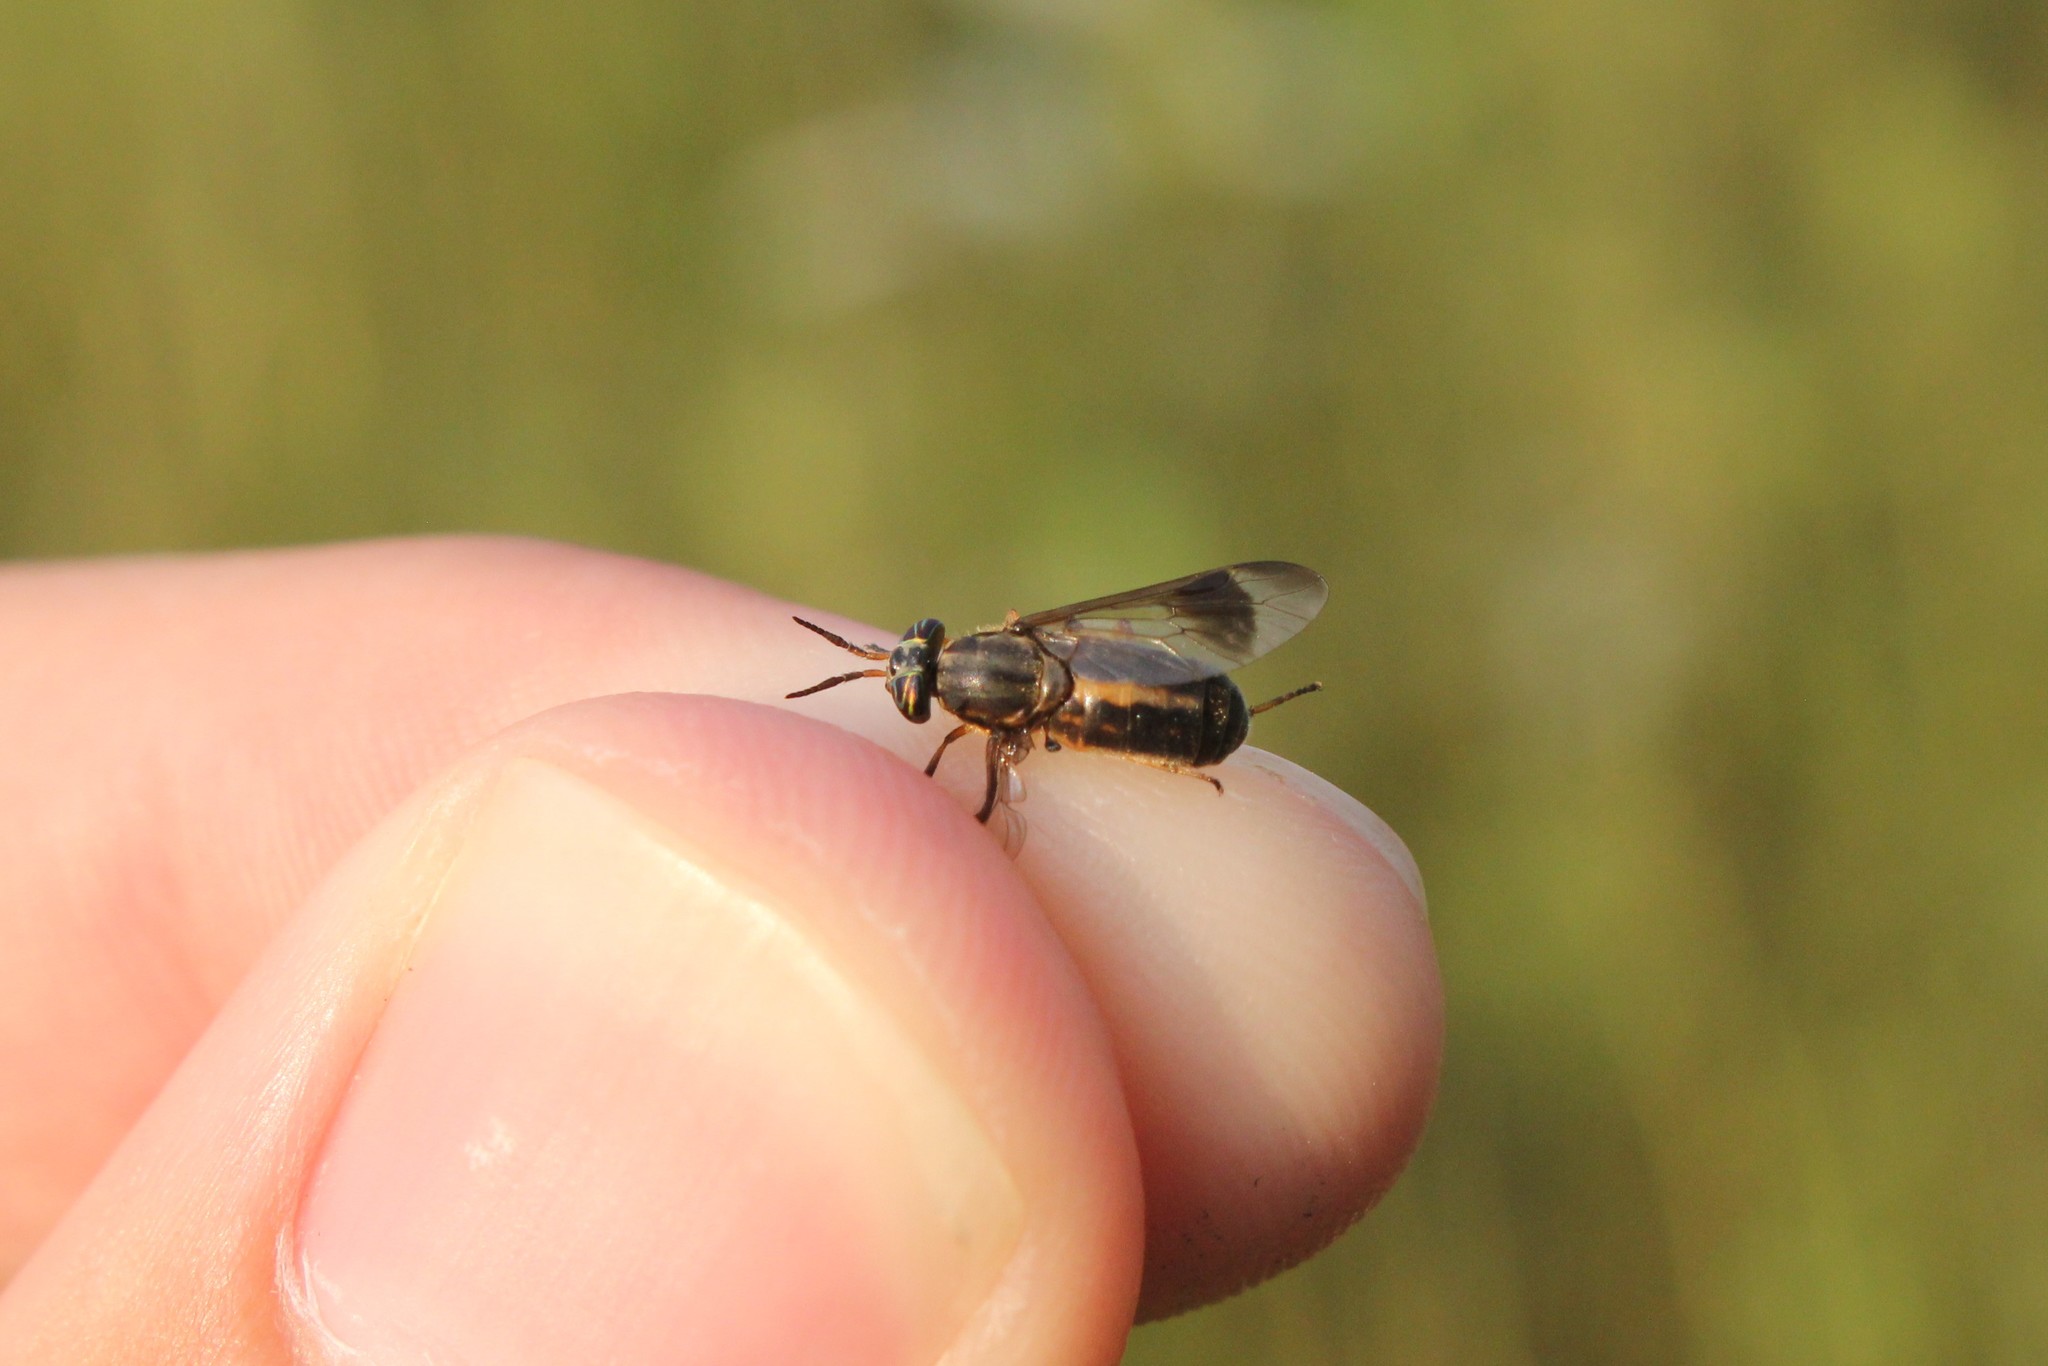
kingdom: Animalia
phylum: Arthropoda
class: Insecta
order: Diptera
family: Tabanidae
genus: Chrysops
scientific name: Chrysops univittatus
